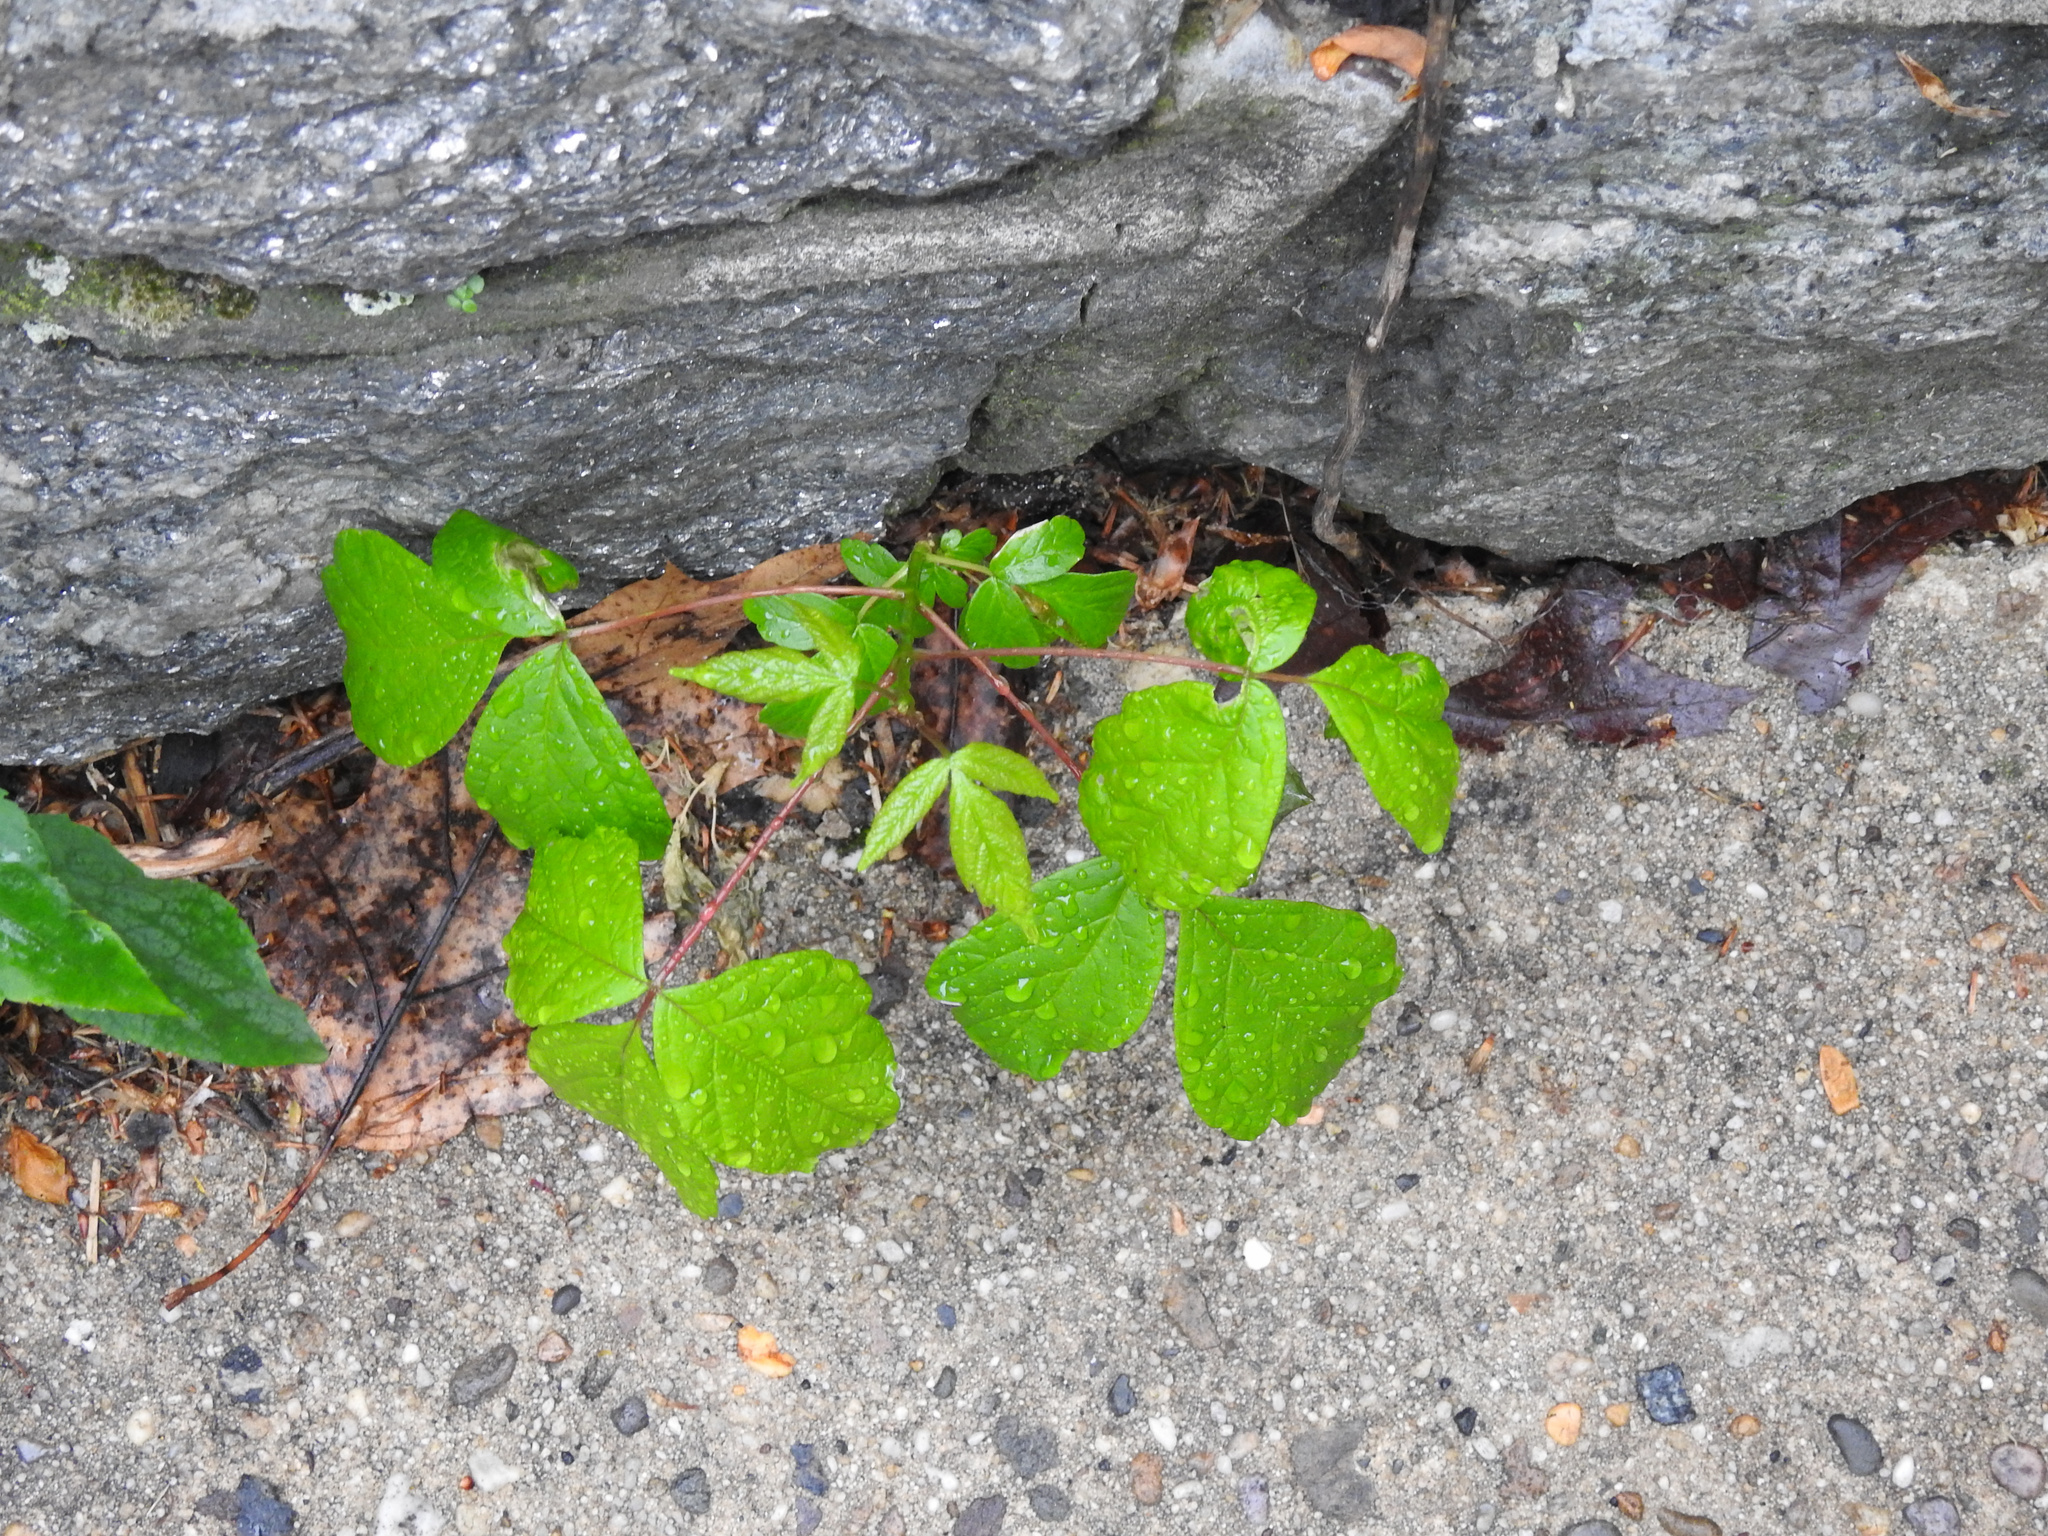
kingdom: Plantae
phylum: Tracheophyta
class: Magnoliopsida
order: Sapindales
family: Anacardiaceae
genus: Toxicodendron
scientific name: Toxicodendron radicans
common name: Poison ivy
